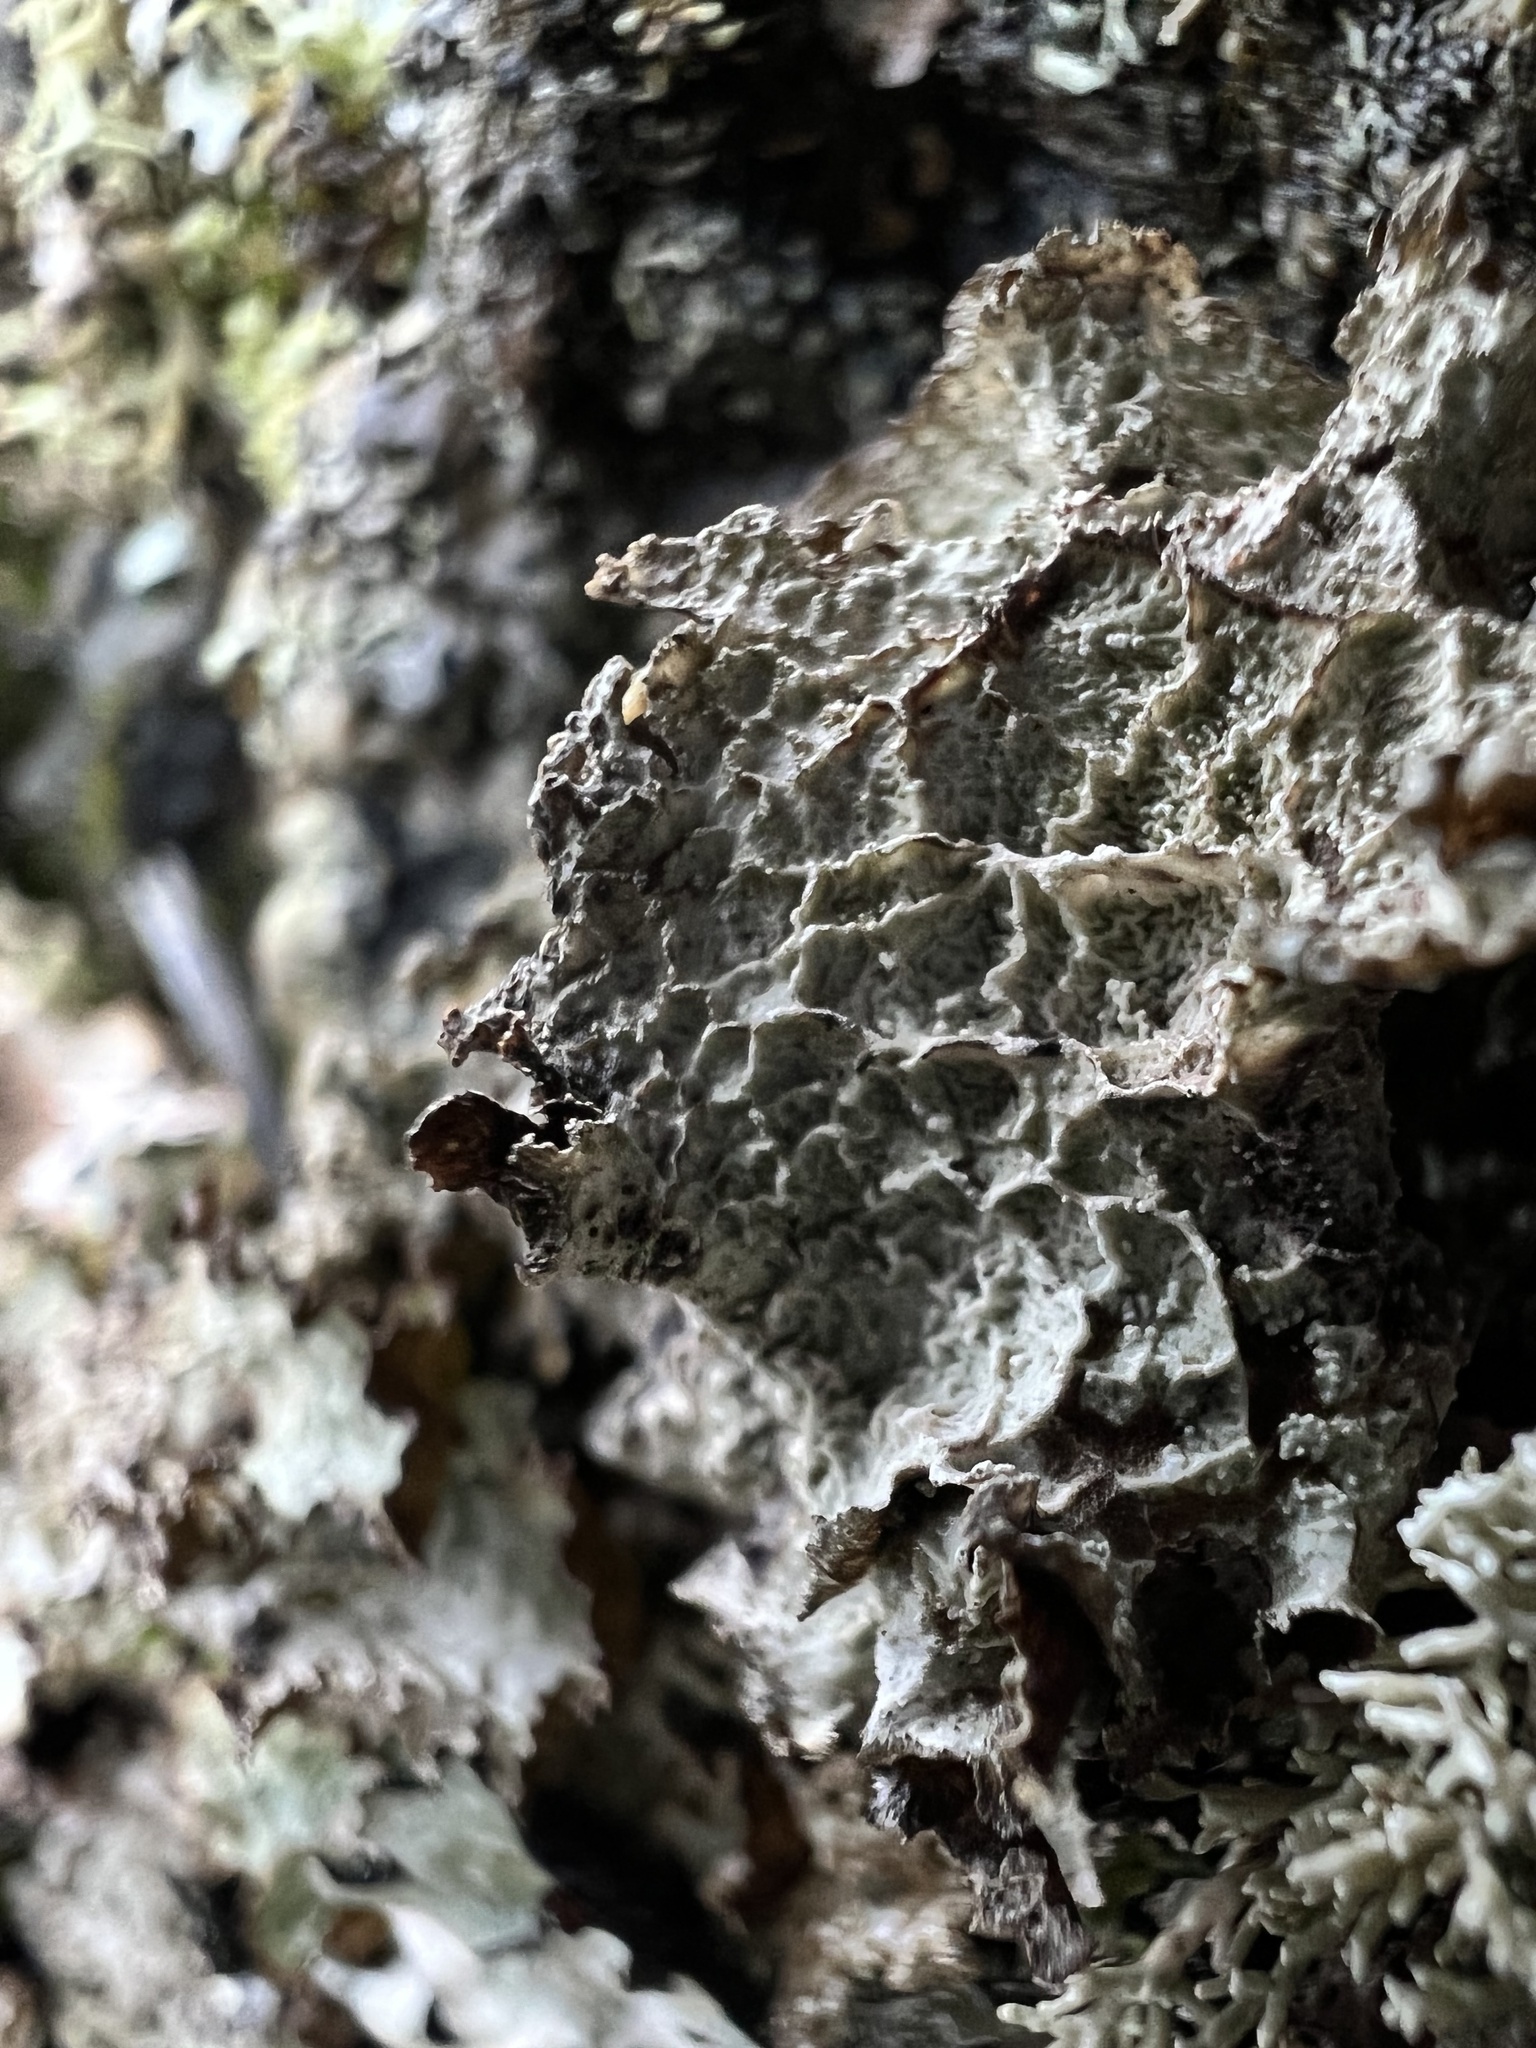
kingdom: Fungi
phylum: Ascomycota
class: Lecanoromycetes
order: Lecanorales
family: Parmeliaceae
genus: Platismatia
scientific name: Platismatia norvegica
